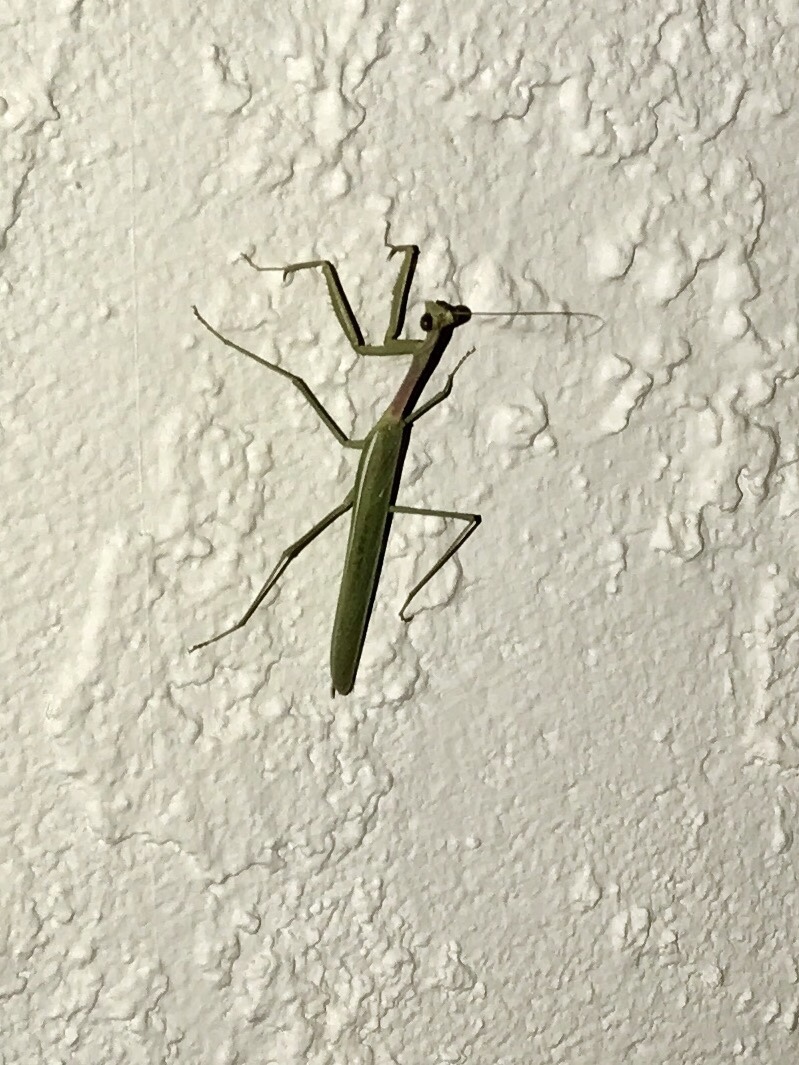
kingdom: Animalia
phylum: Arthropoda
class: Insecta
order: Mantodea
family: Mantidae
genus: Stagmomantis
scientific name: Stagmomantis gracilipes
